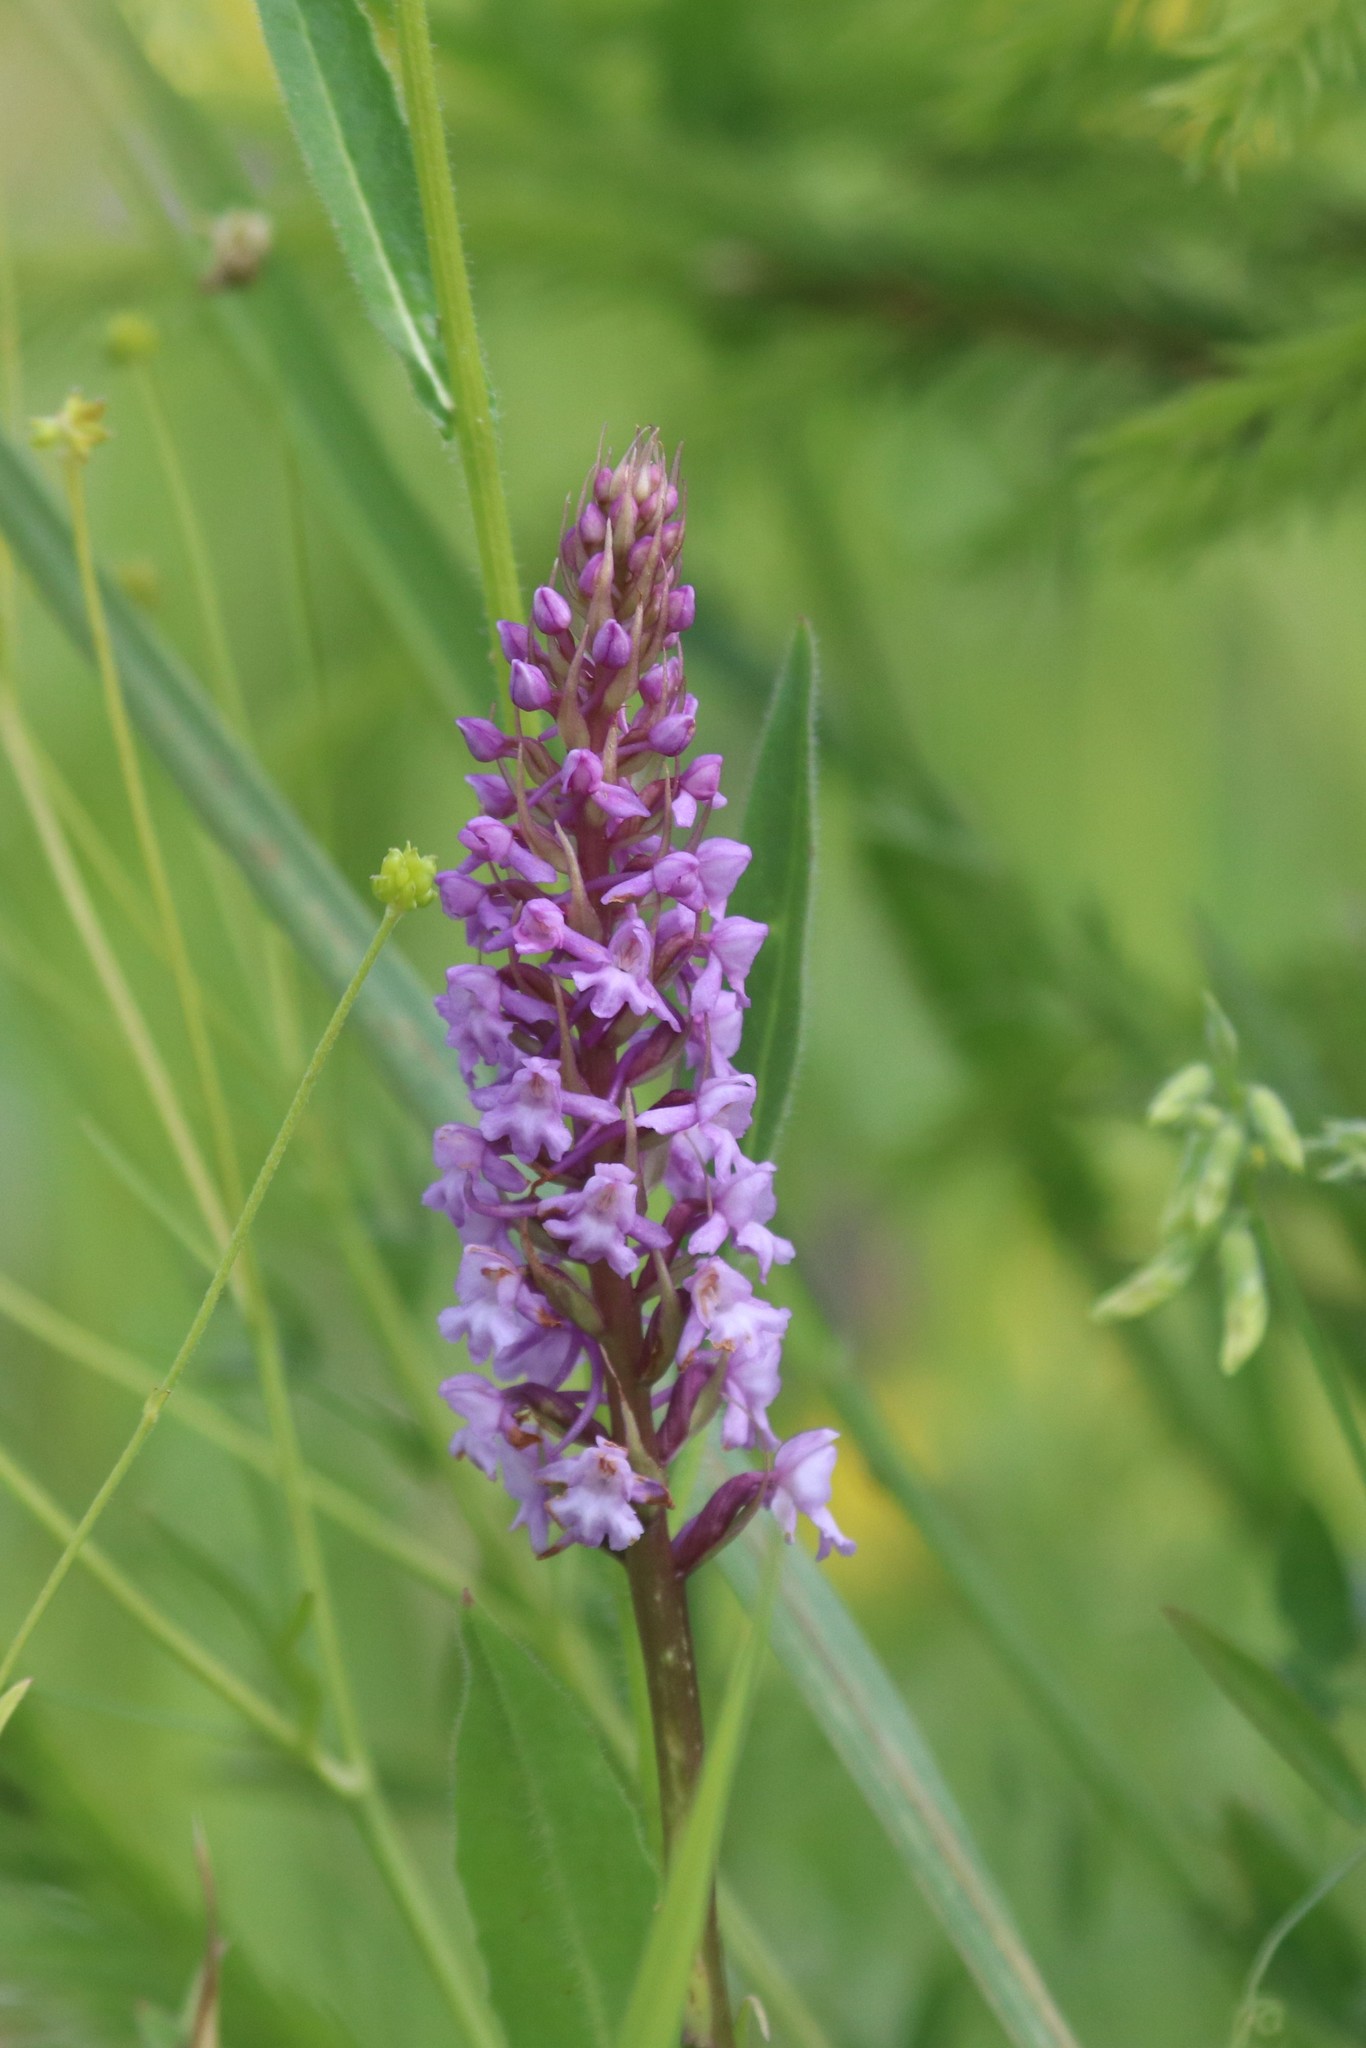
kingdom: Plantae
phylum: Tracheophyta
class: Liliopsida
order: Asparagales
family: Orchidaceae
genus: Gymnadenia
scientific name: Gymnadenia conopsea
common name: Fragrant orchid
